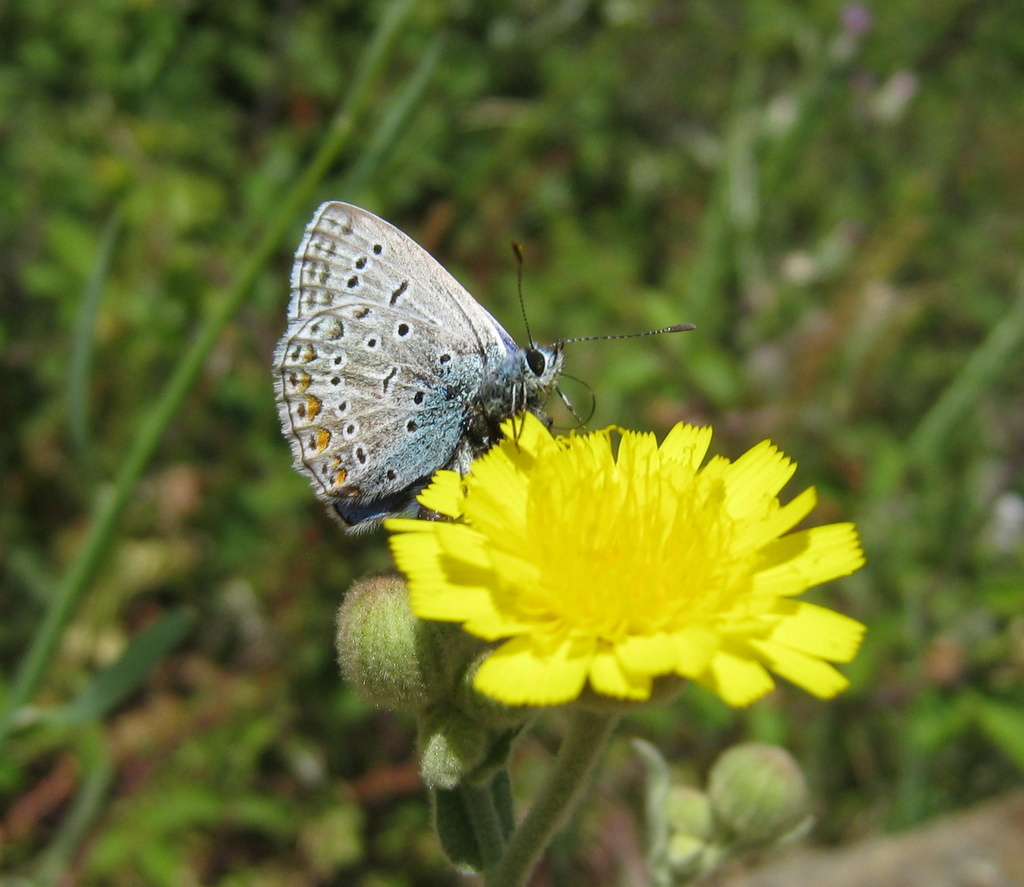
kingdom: Animalia
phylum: Arthropoda
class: Insecta
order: Lepidoptera
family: Lycaenidae
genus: Polyommatus
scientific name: Polyommatus icarus
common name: Common blue
